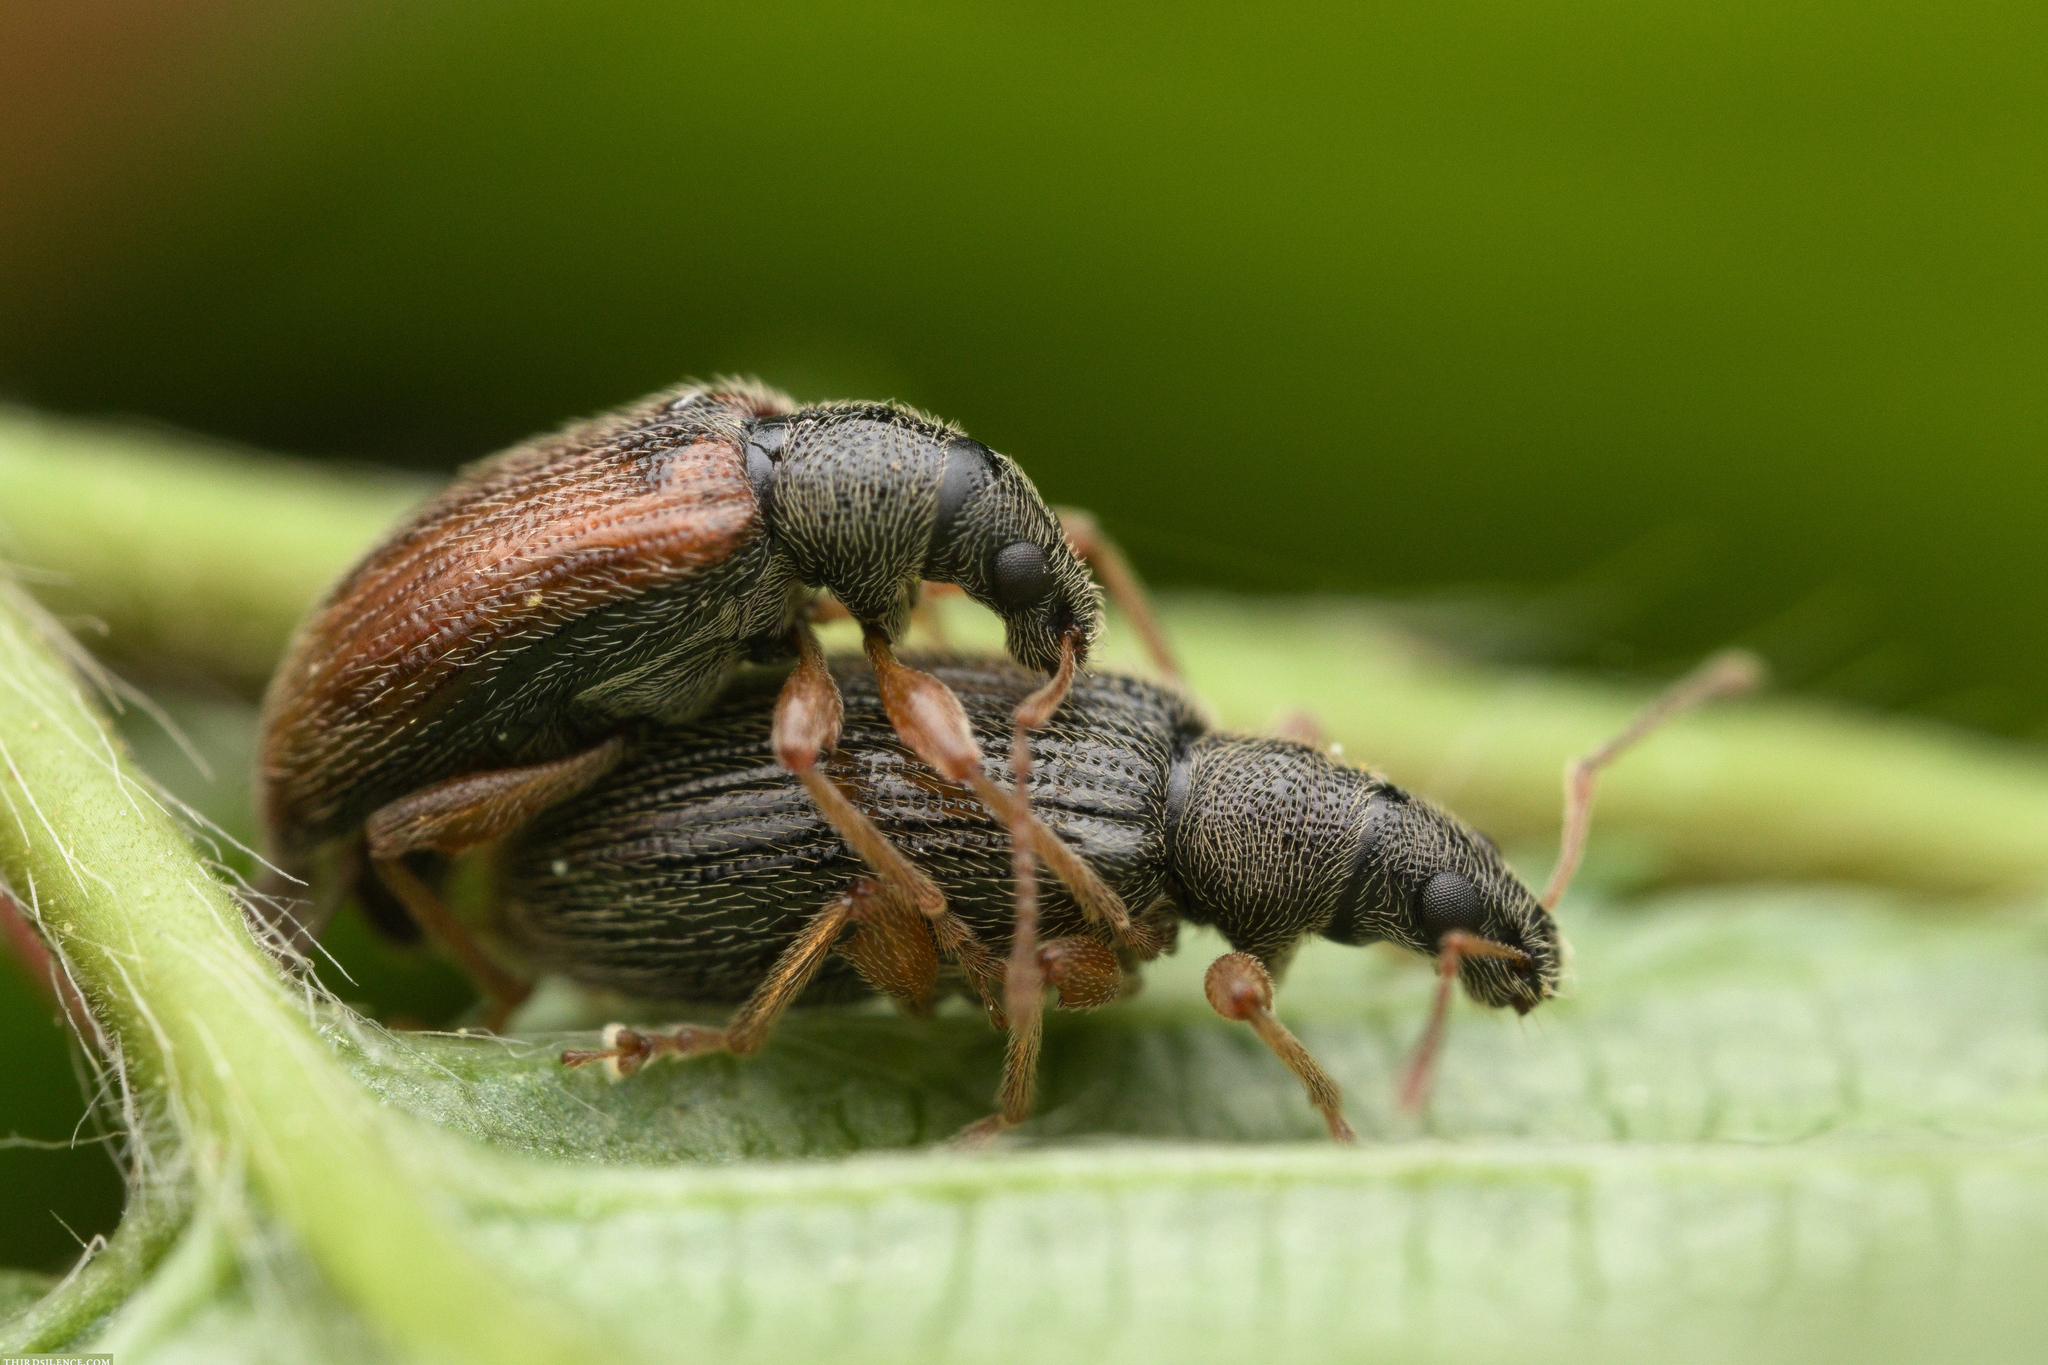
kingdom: Animalia
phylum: Arthropoda
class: Insecta
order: Coleoptera
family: Curculionidae
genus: Phyllobius
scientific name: Phyllobius oblongus
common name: Brown leaf weevil
